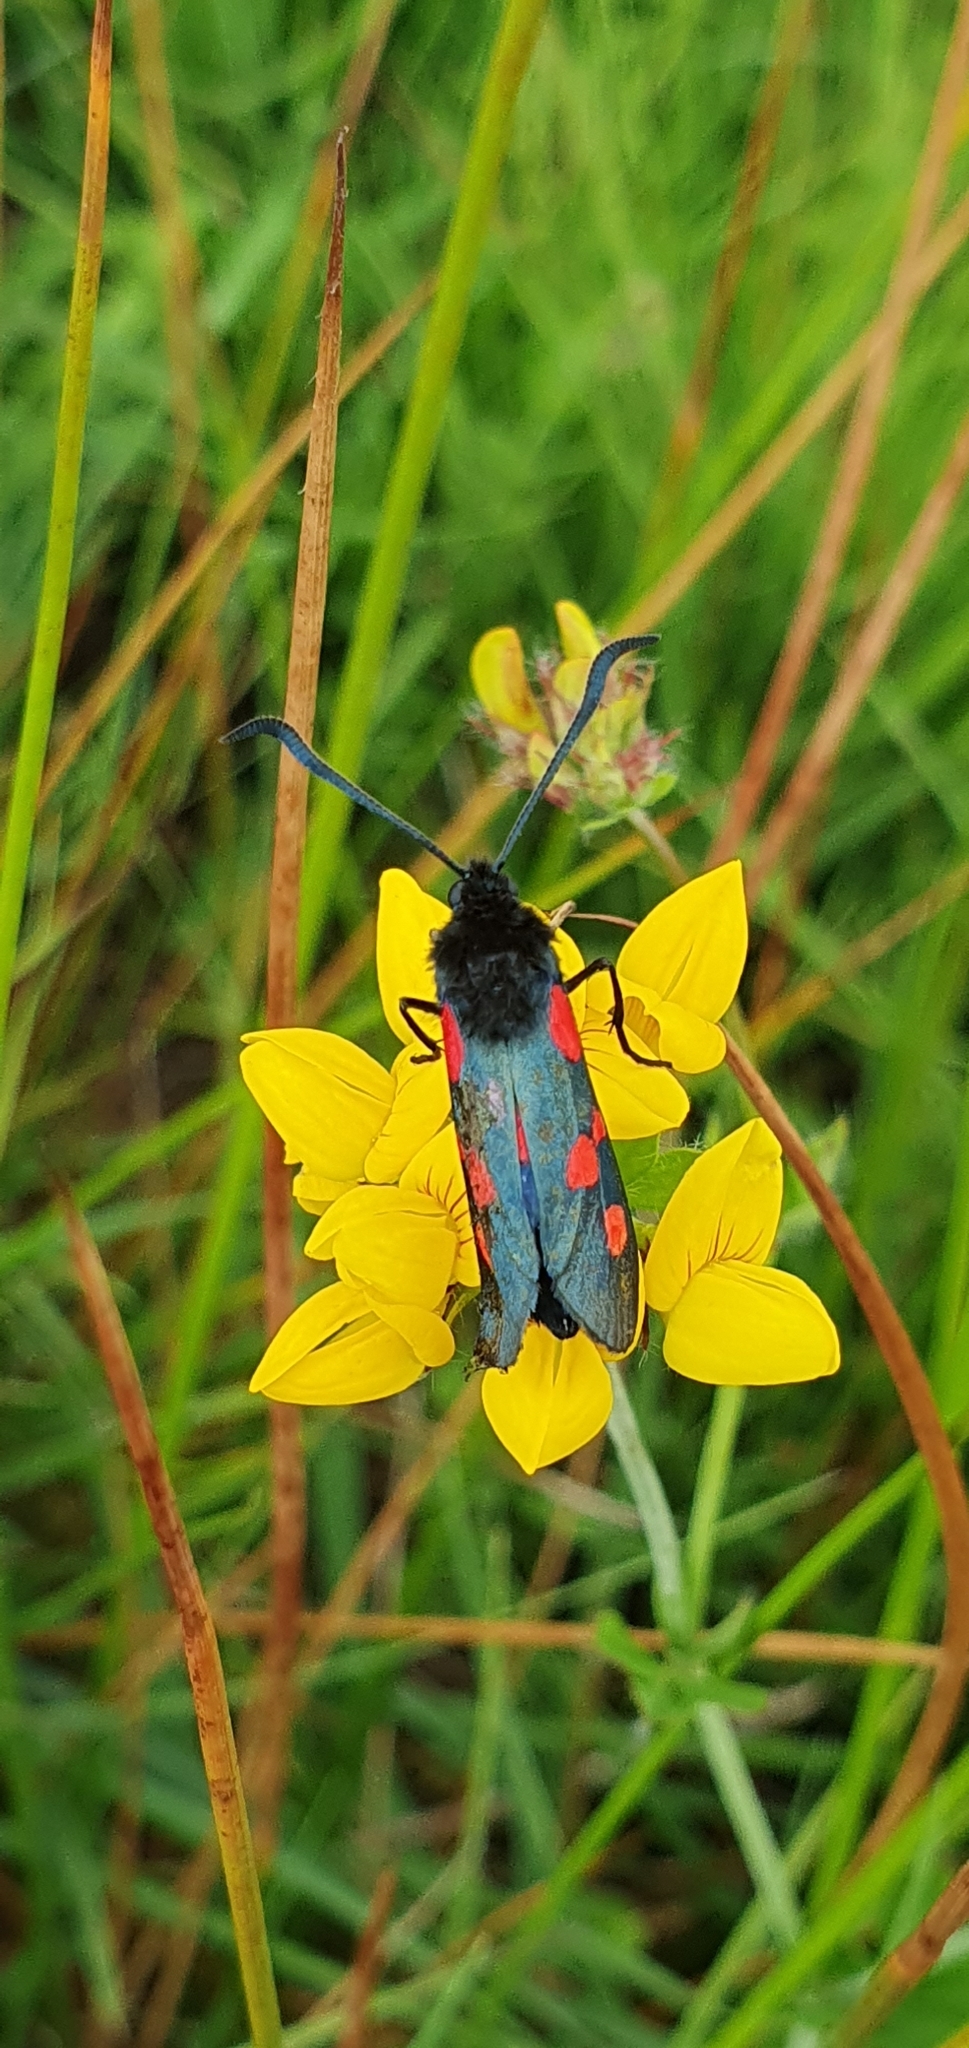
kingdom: Animalia
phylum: Arthropoda
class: Insecta
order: Lepidoptera
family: Zygaenidae
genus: Zygaena
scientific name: Zygaena trifolii
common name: Five-spot burnet
